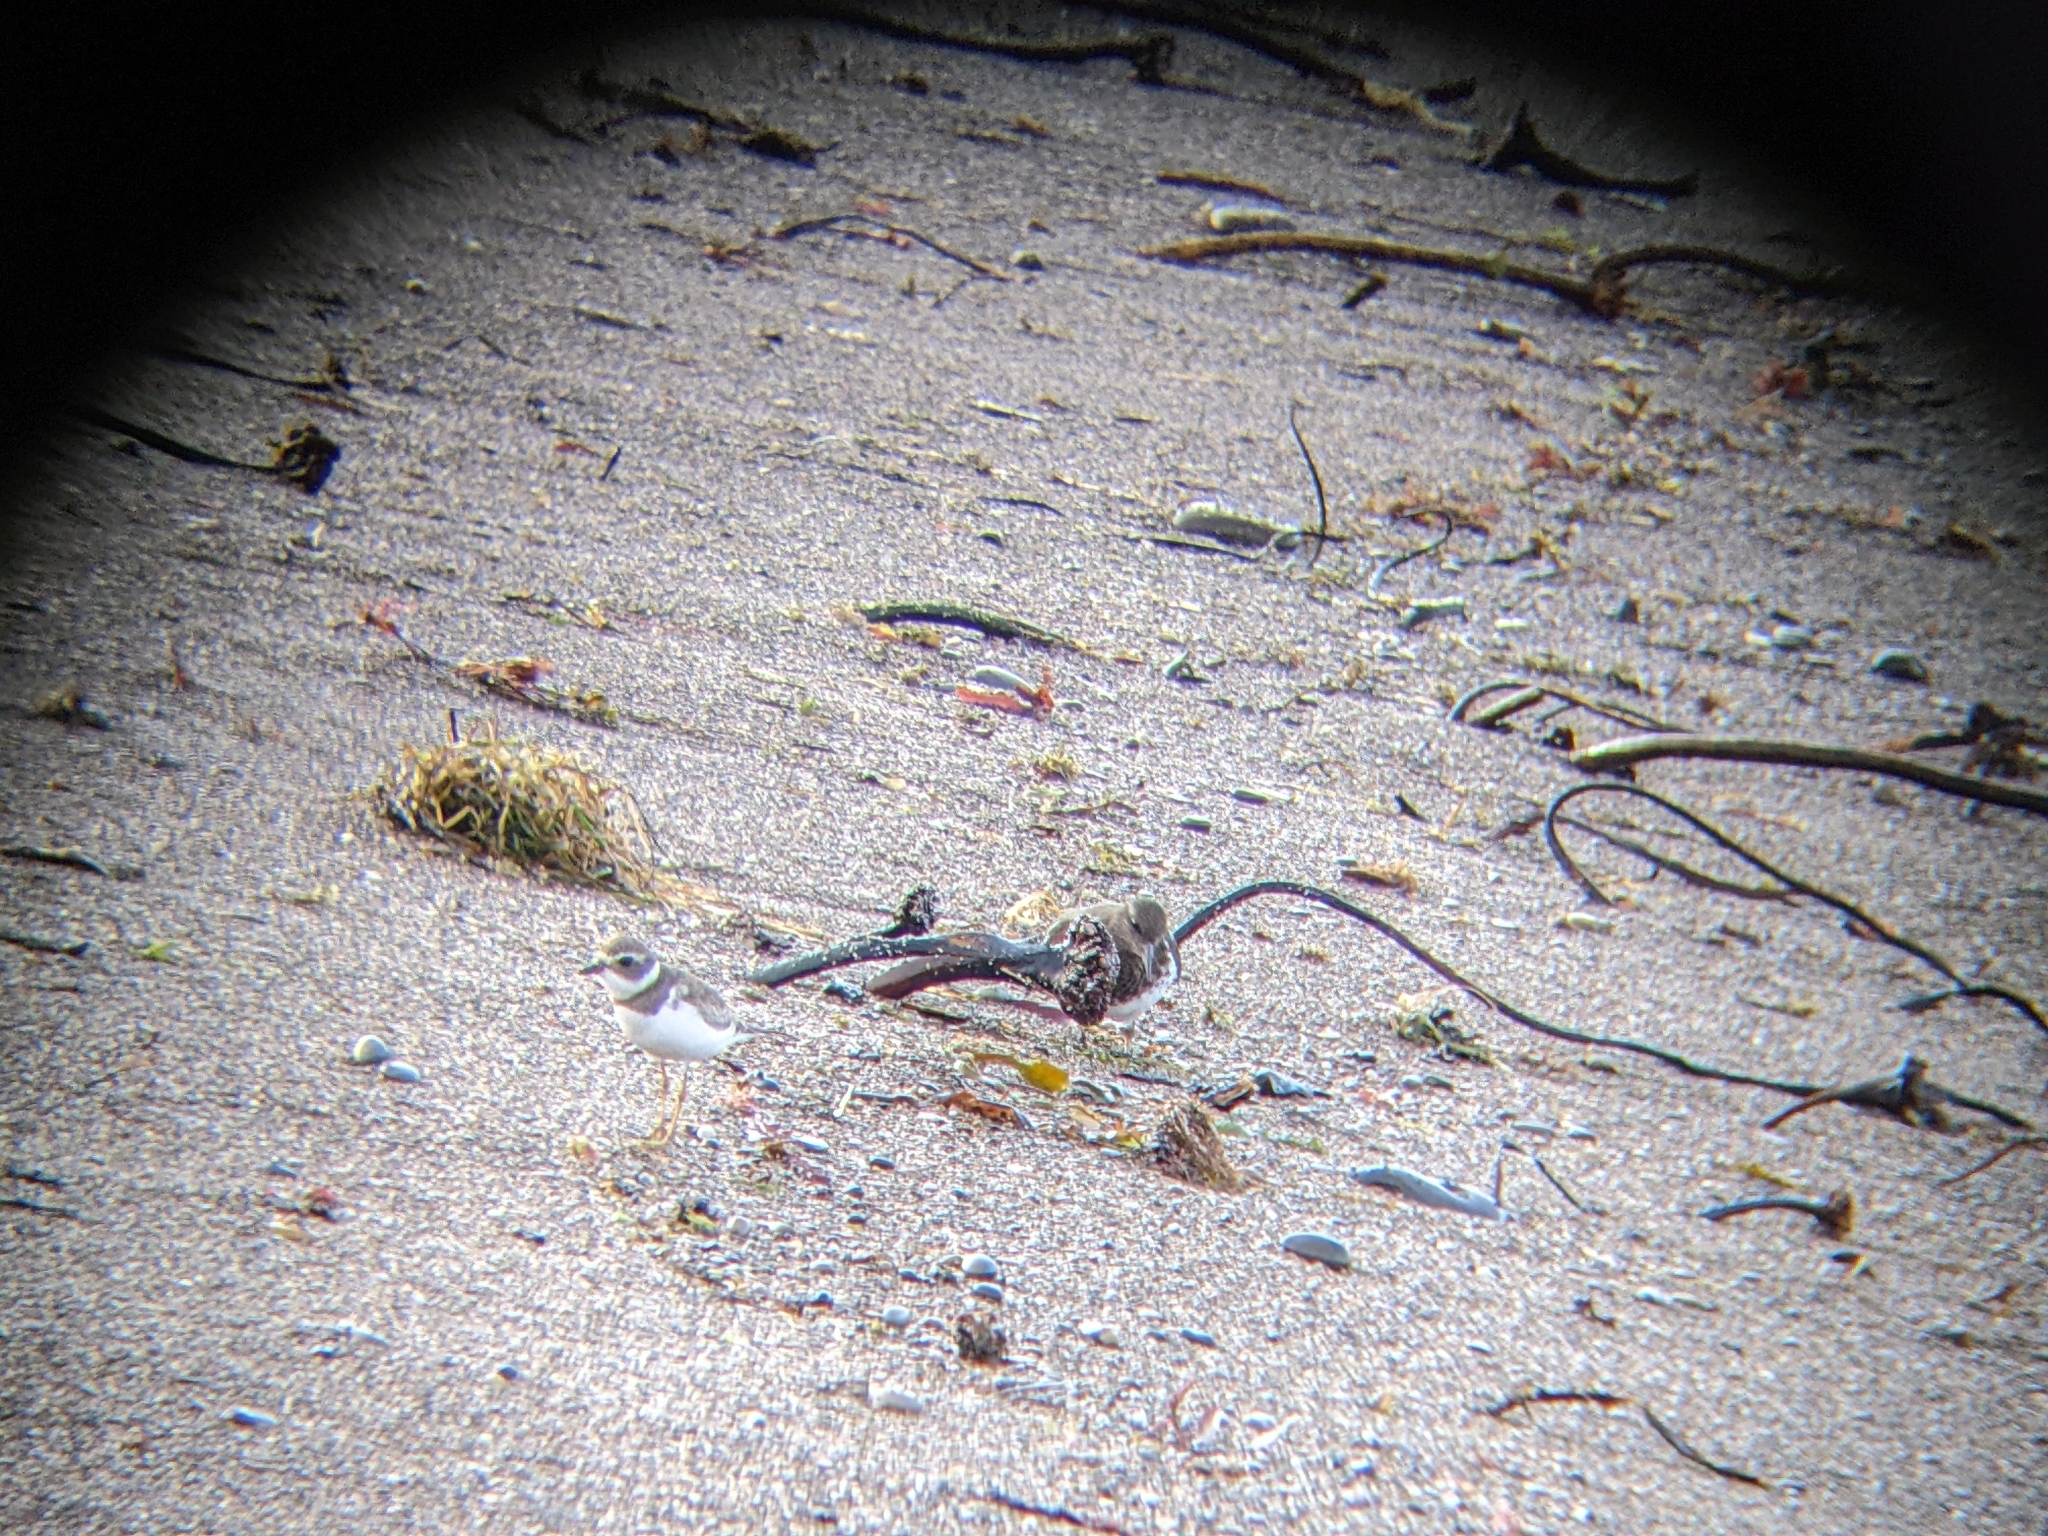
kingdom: Animalia
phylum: Chordata
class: Aves
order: Charadriiformes
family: Charadriidae
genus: Charadrius
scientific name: Charadrius semipalmatus
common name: Semipalmated plover
